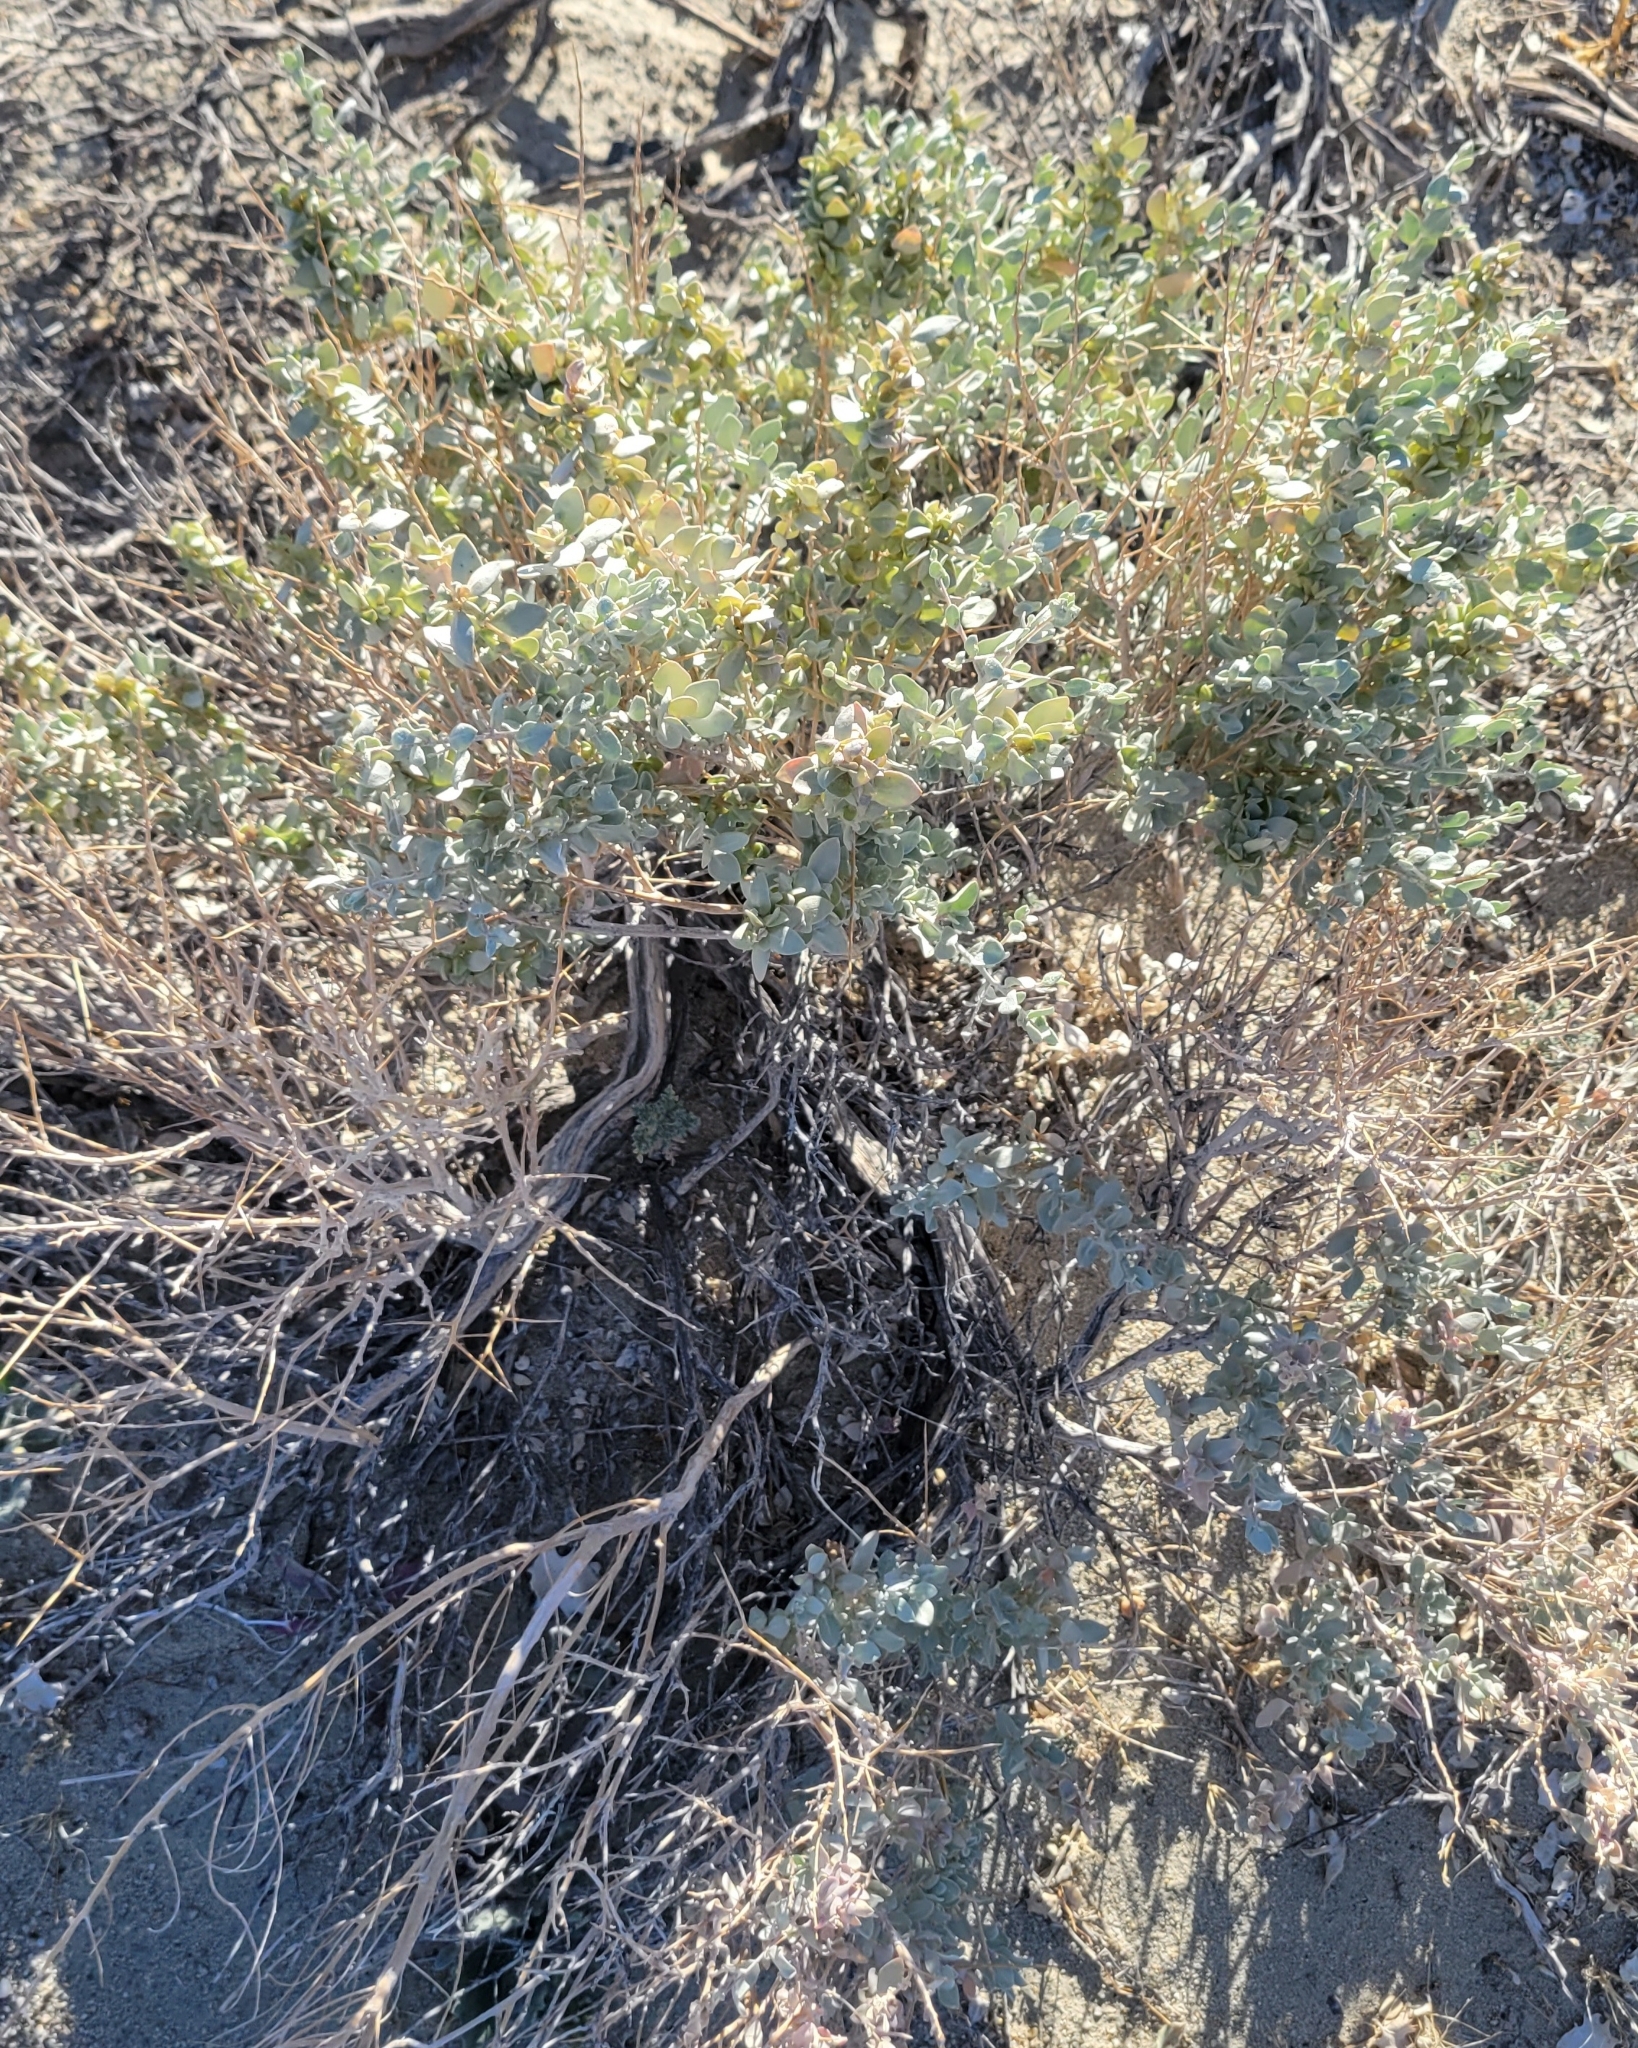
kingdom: Plantae
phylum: Tracheophyta
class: Magnoliopsida
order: Caryophyllales
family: Amaranthaceae
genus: Atriplex
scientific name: Atriplex confertifolia
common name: Shadscale
